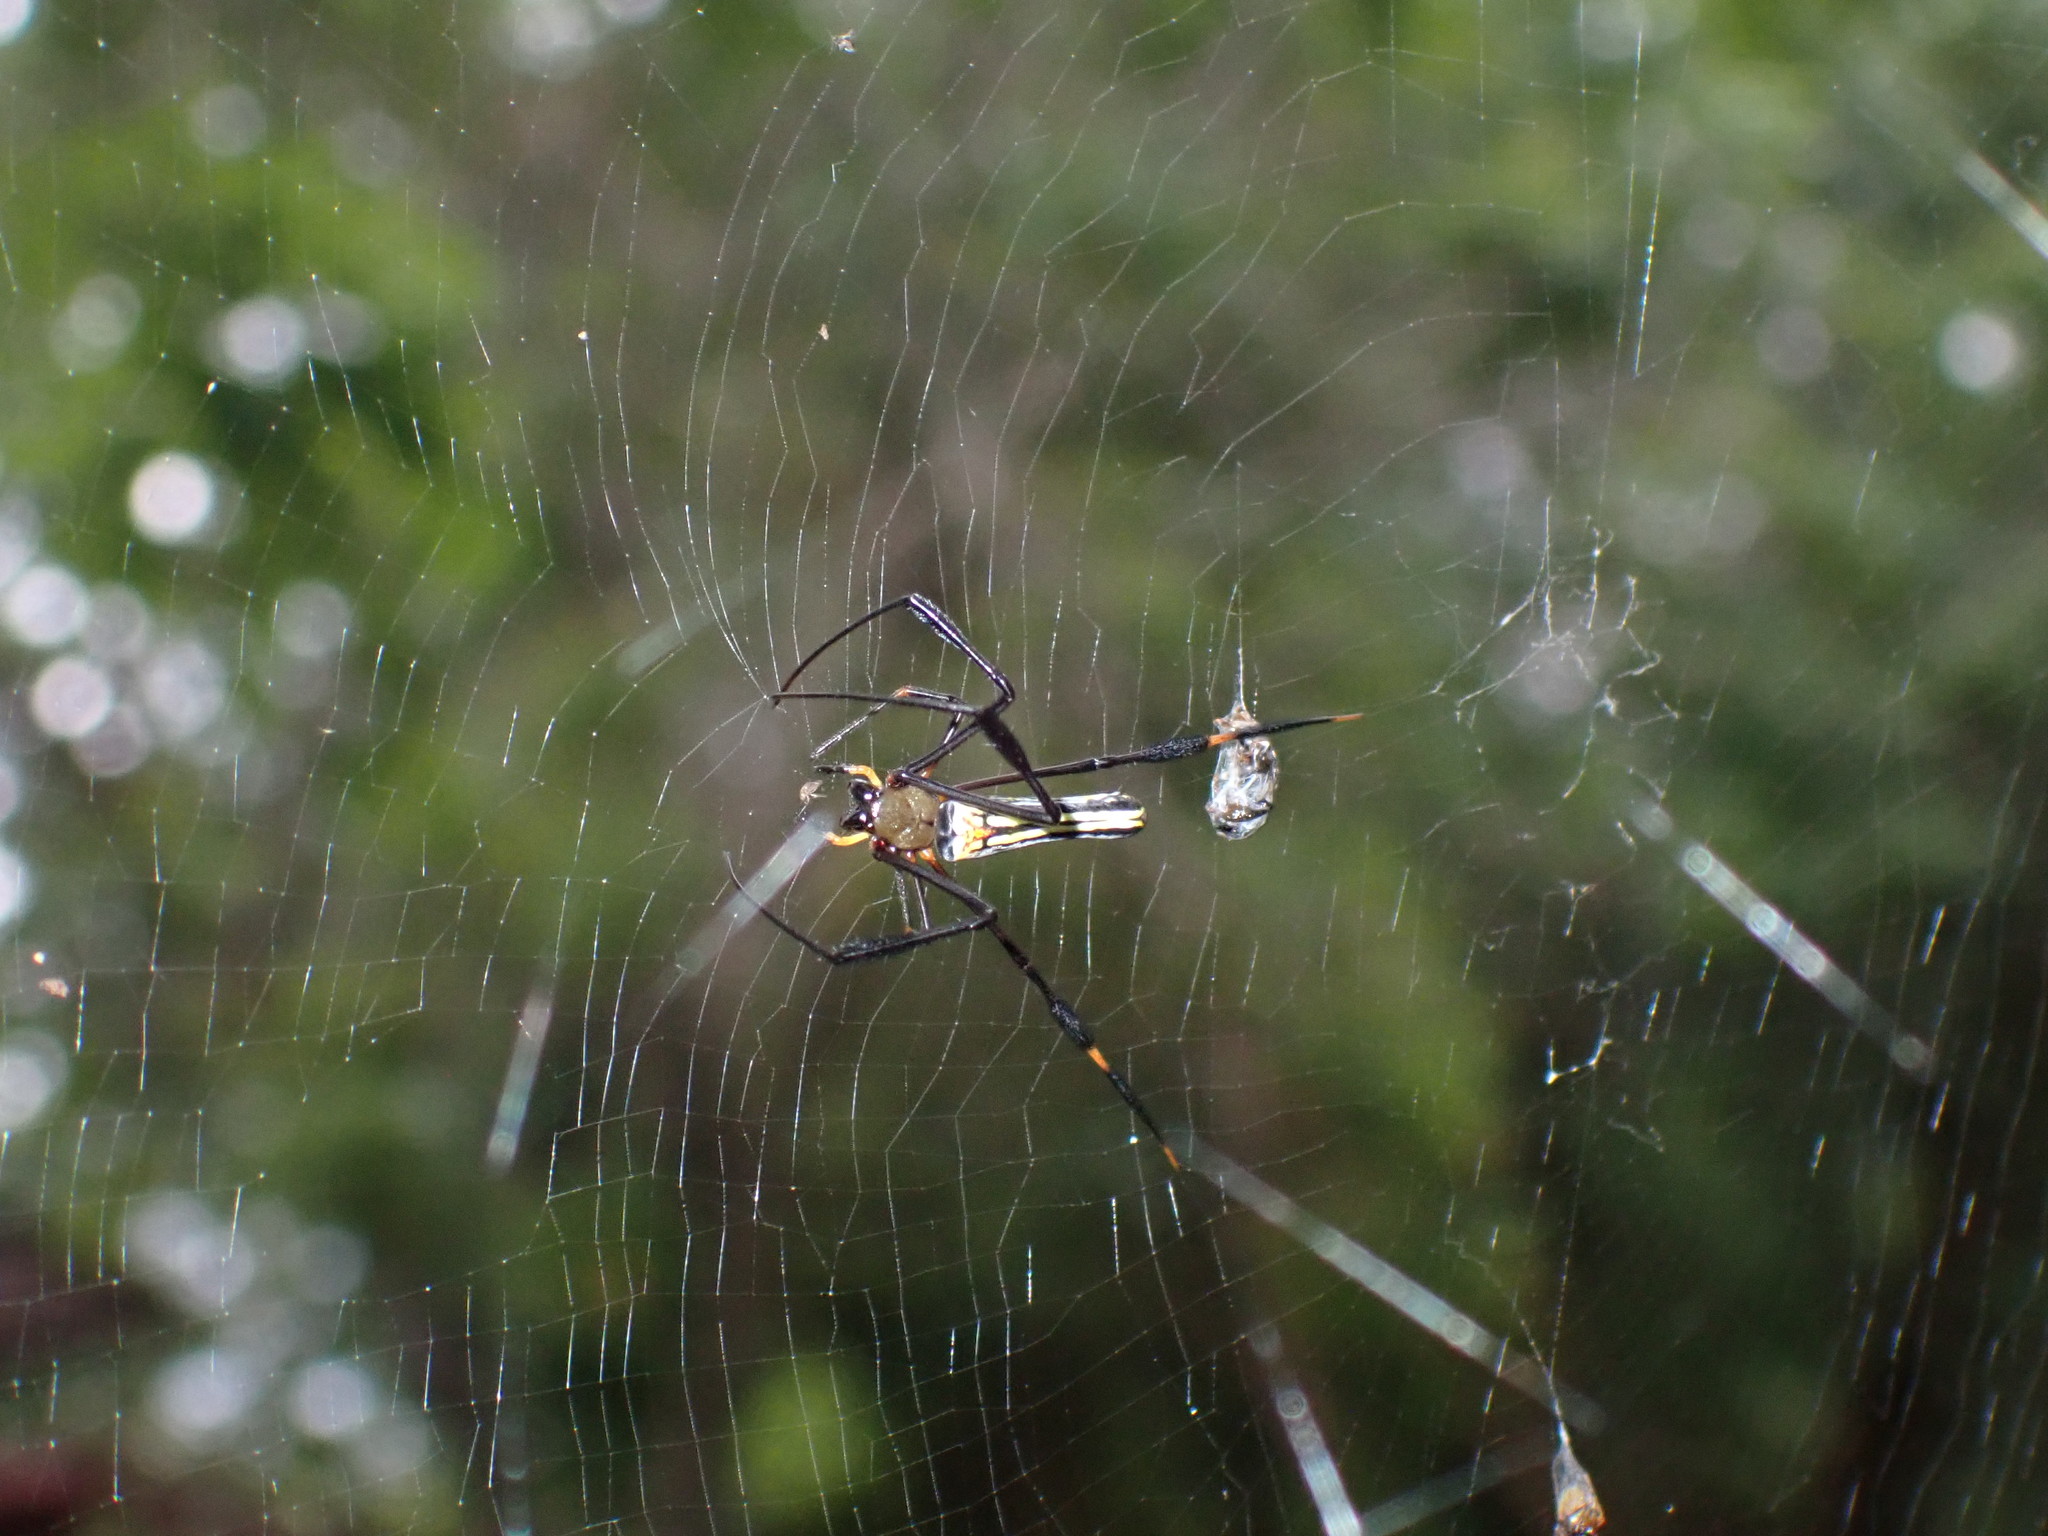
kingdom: Animalia
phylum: Arthropoda
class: Arachnida
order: Araneae
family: Araneidae
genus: Nephila
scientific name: Nephila pilipes
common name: Giant golden orb weaver
